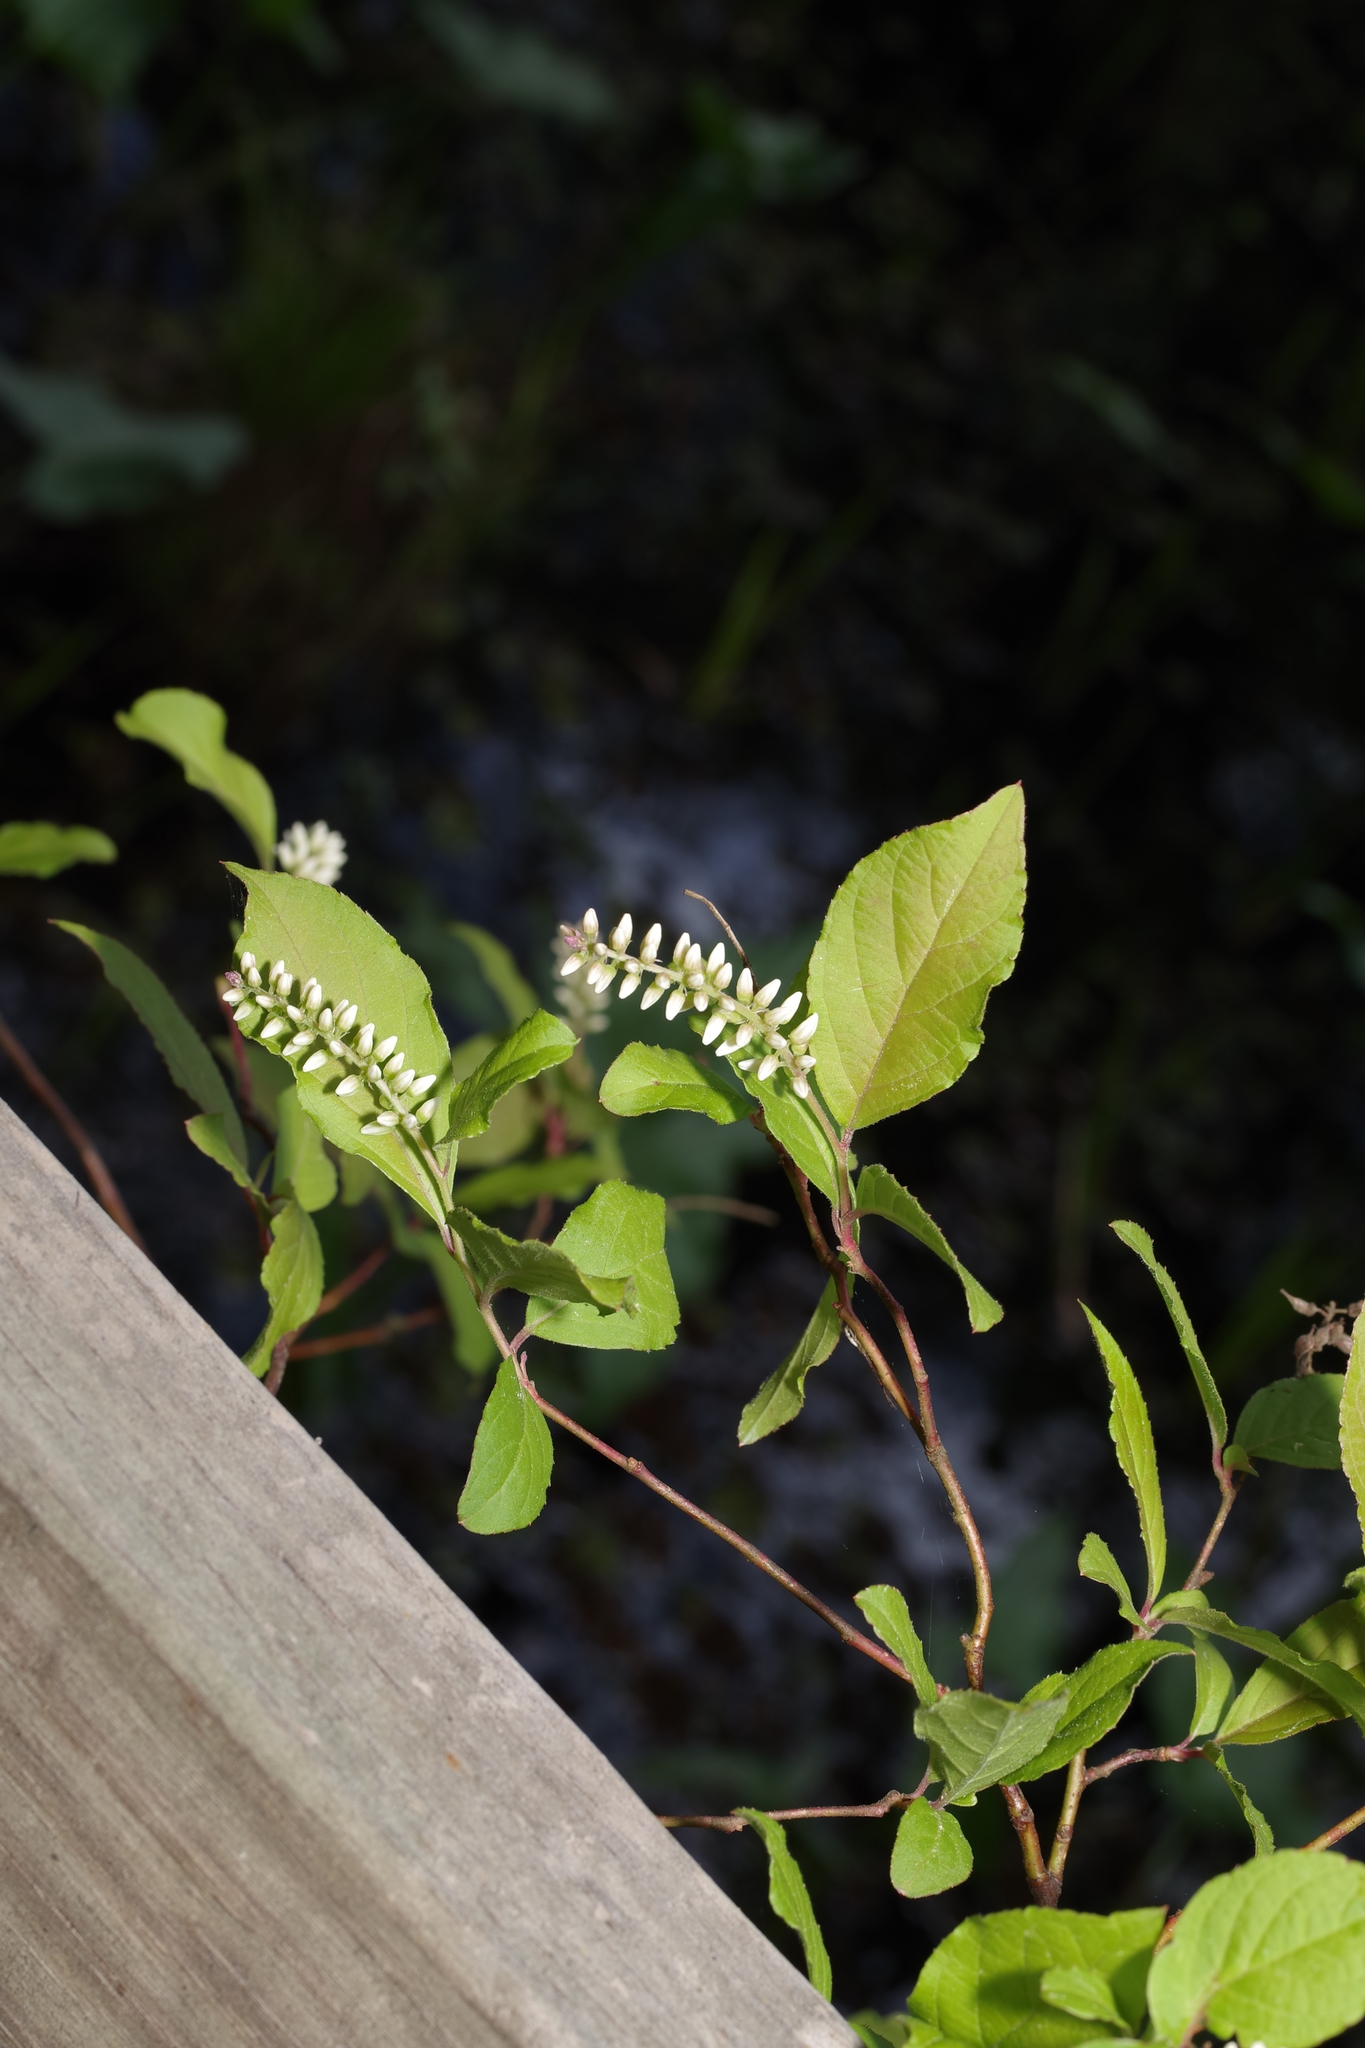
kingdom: Plantae
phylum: Tracheophyta
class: Magnoliopsida
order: Saxifragales
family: Iteaceae
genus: Itea
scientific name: Itea virginica
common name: Sweetspire
